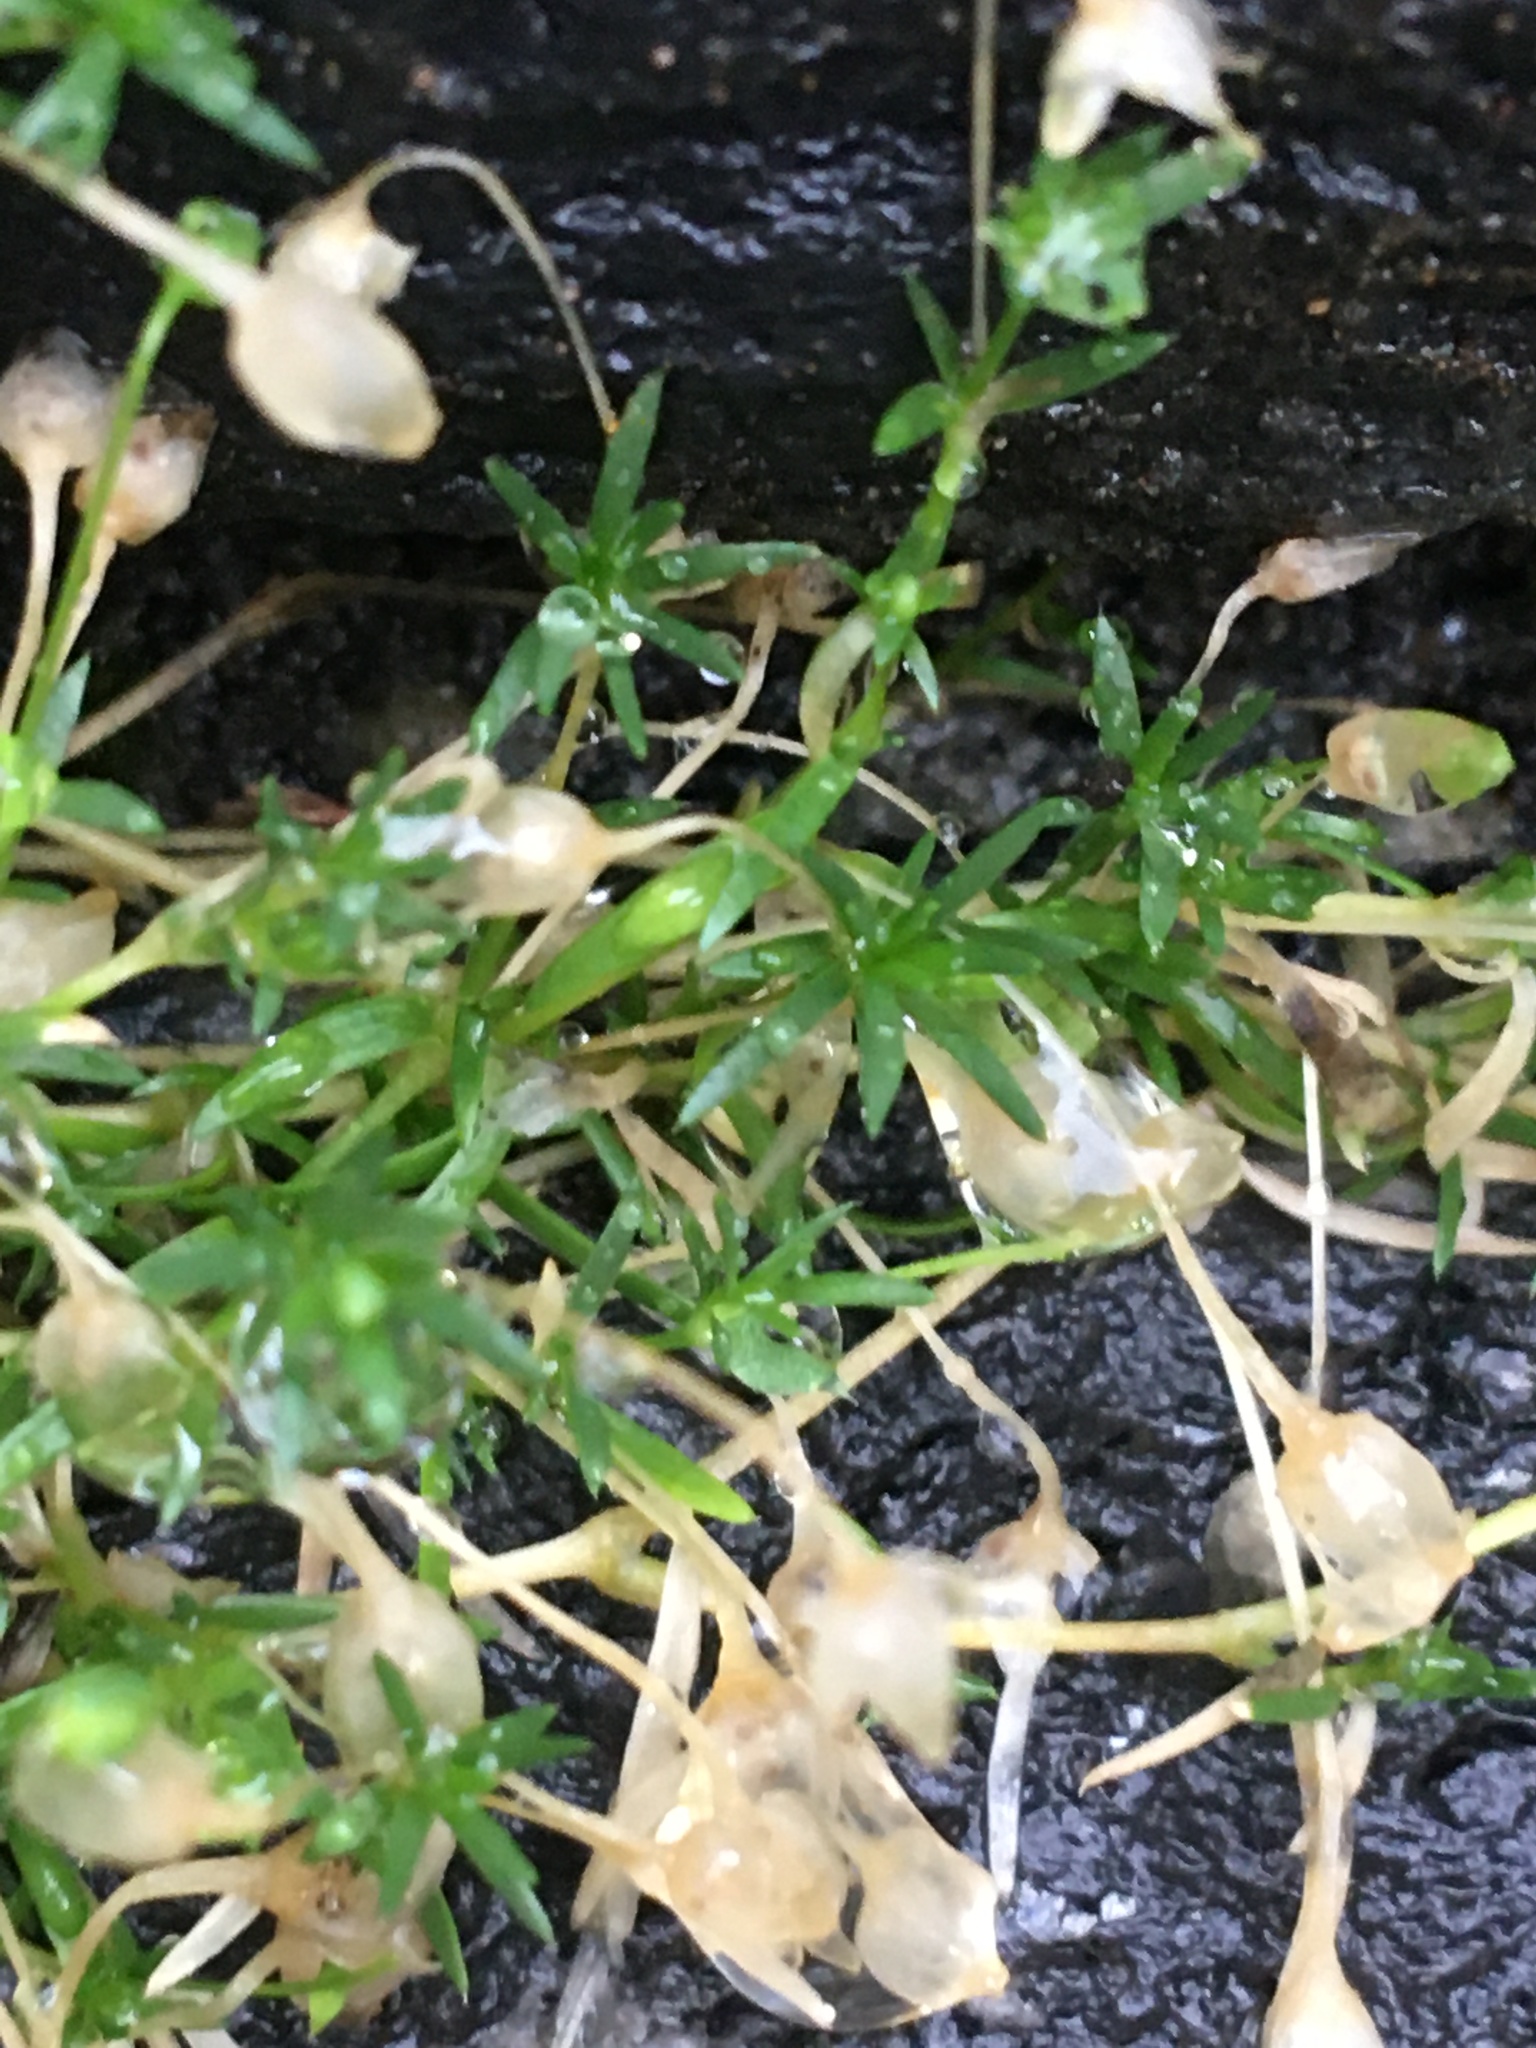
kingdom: Plantae
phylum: Tracheophyta
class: Magnoliopsida
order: Caryophyllales
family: Caryophyllaceae
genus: Sagina
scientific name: Sagina procumbens
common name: Procumbent pearlwort
